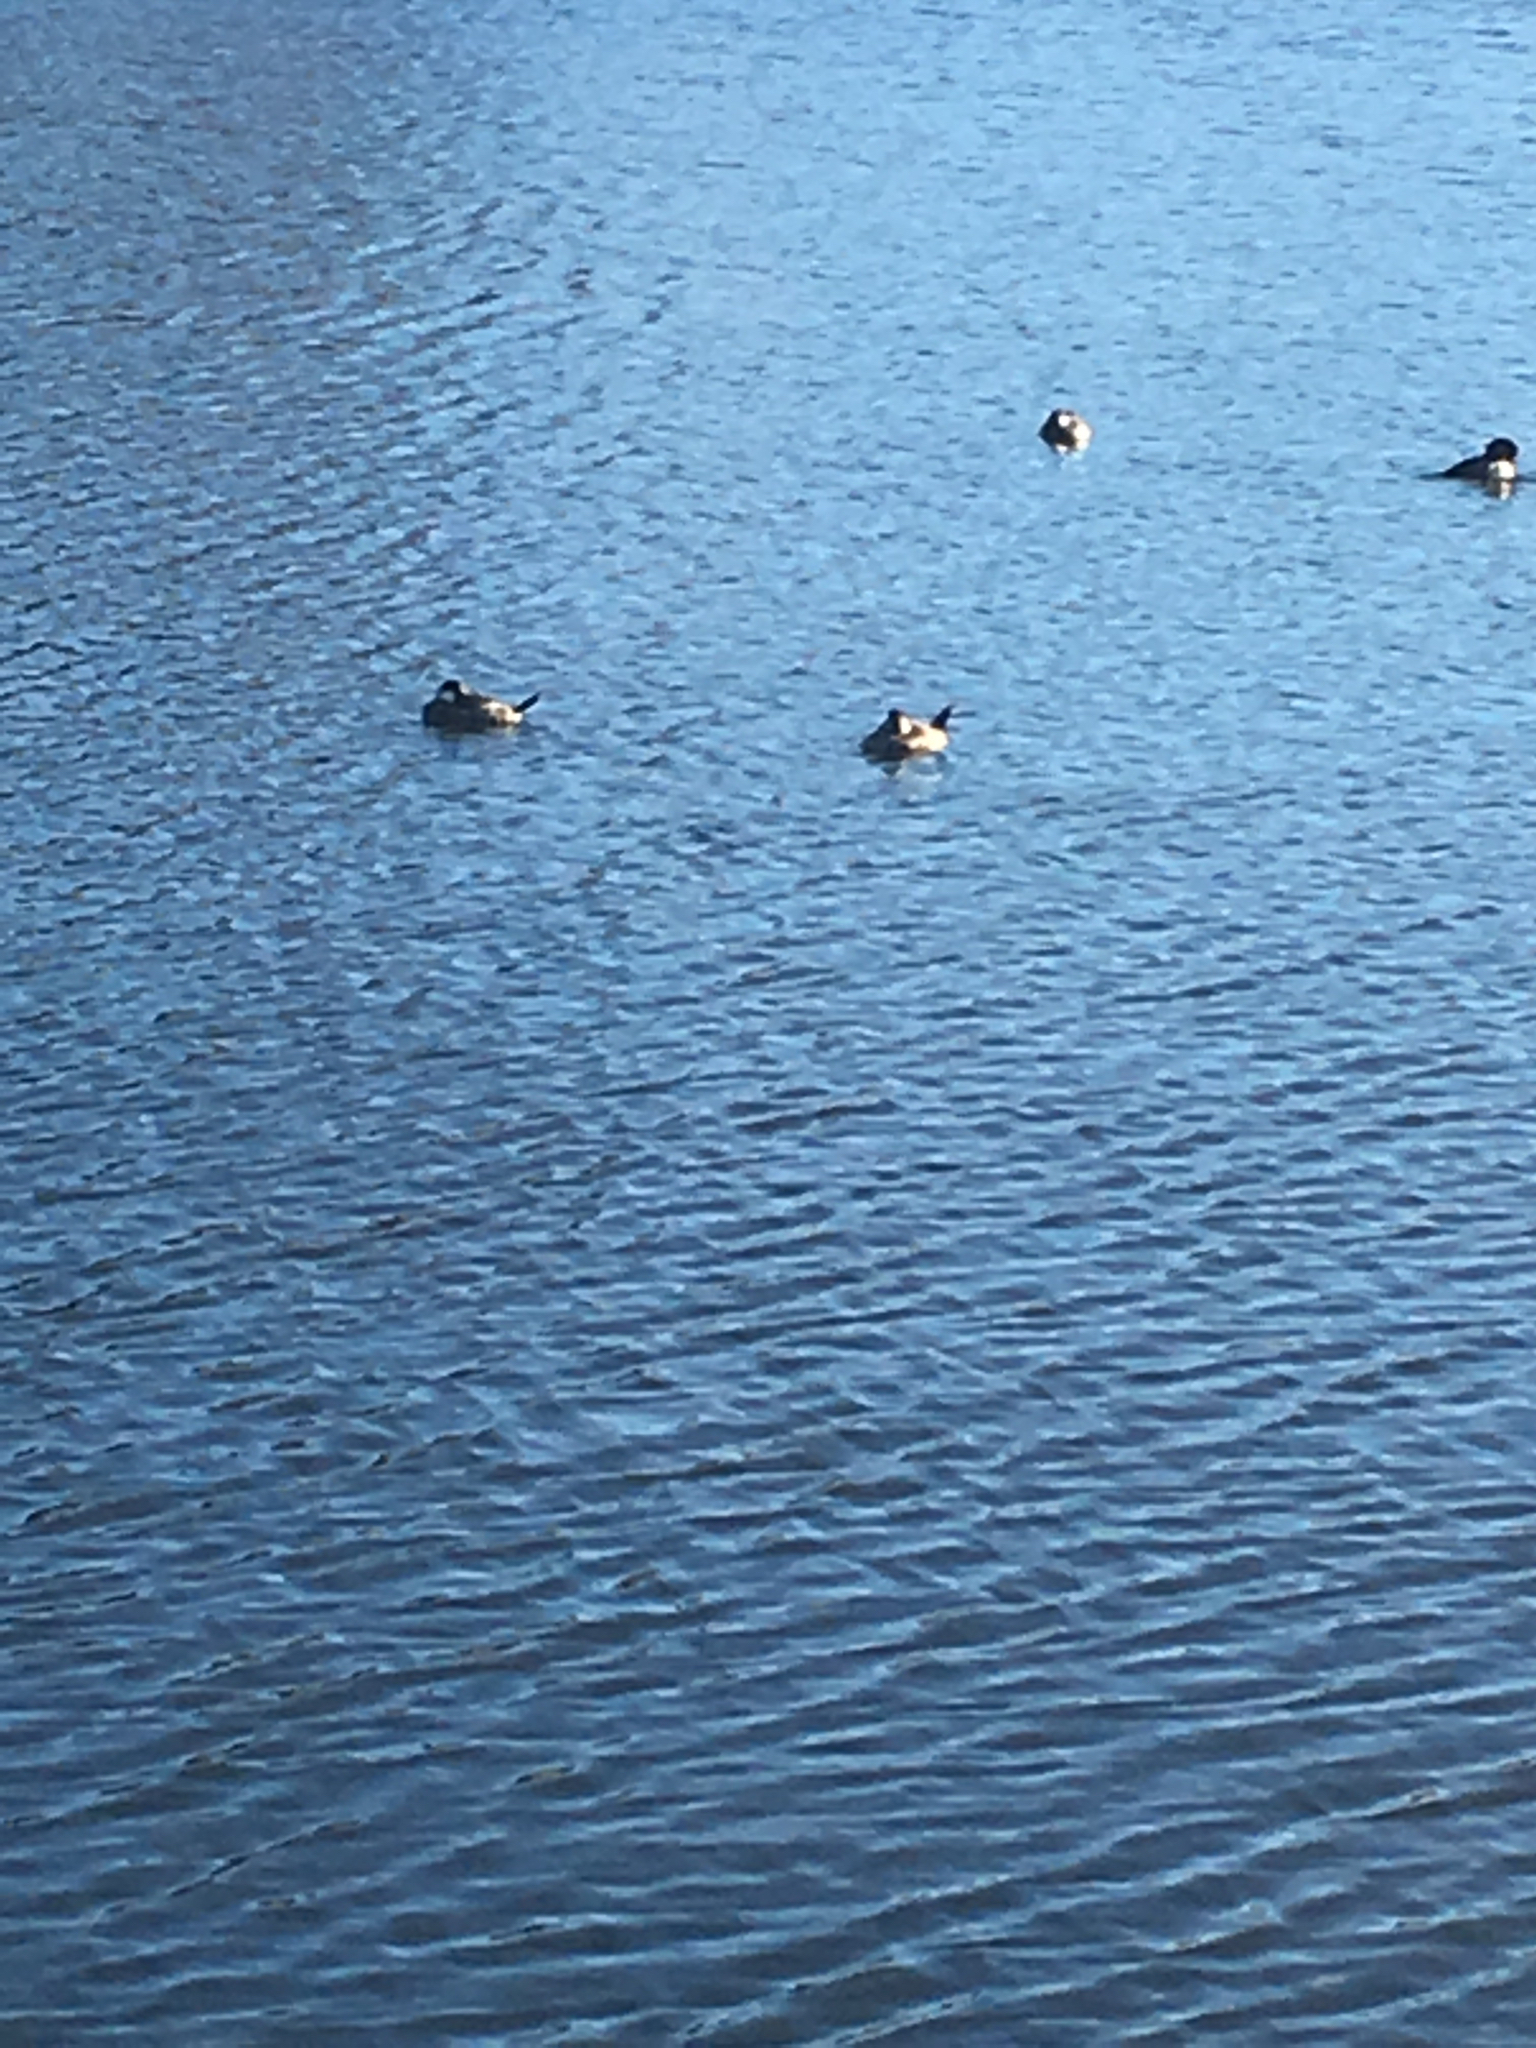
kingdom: Animalia
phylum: Chordata
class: Aves
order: Anseriformes
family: Anatidae
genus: Oxyura
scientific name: Oxyura jamaicensis
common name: Ruddy duck
